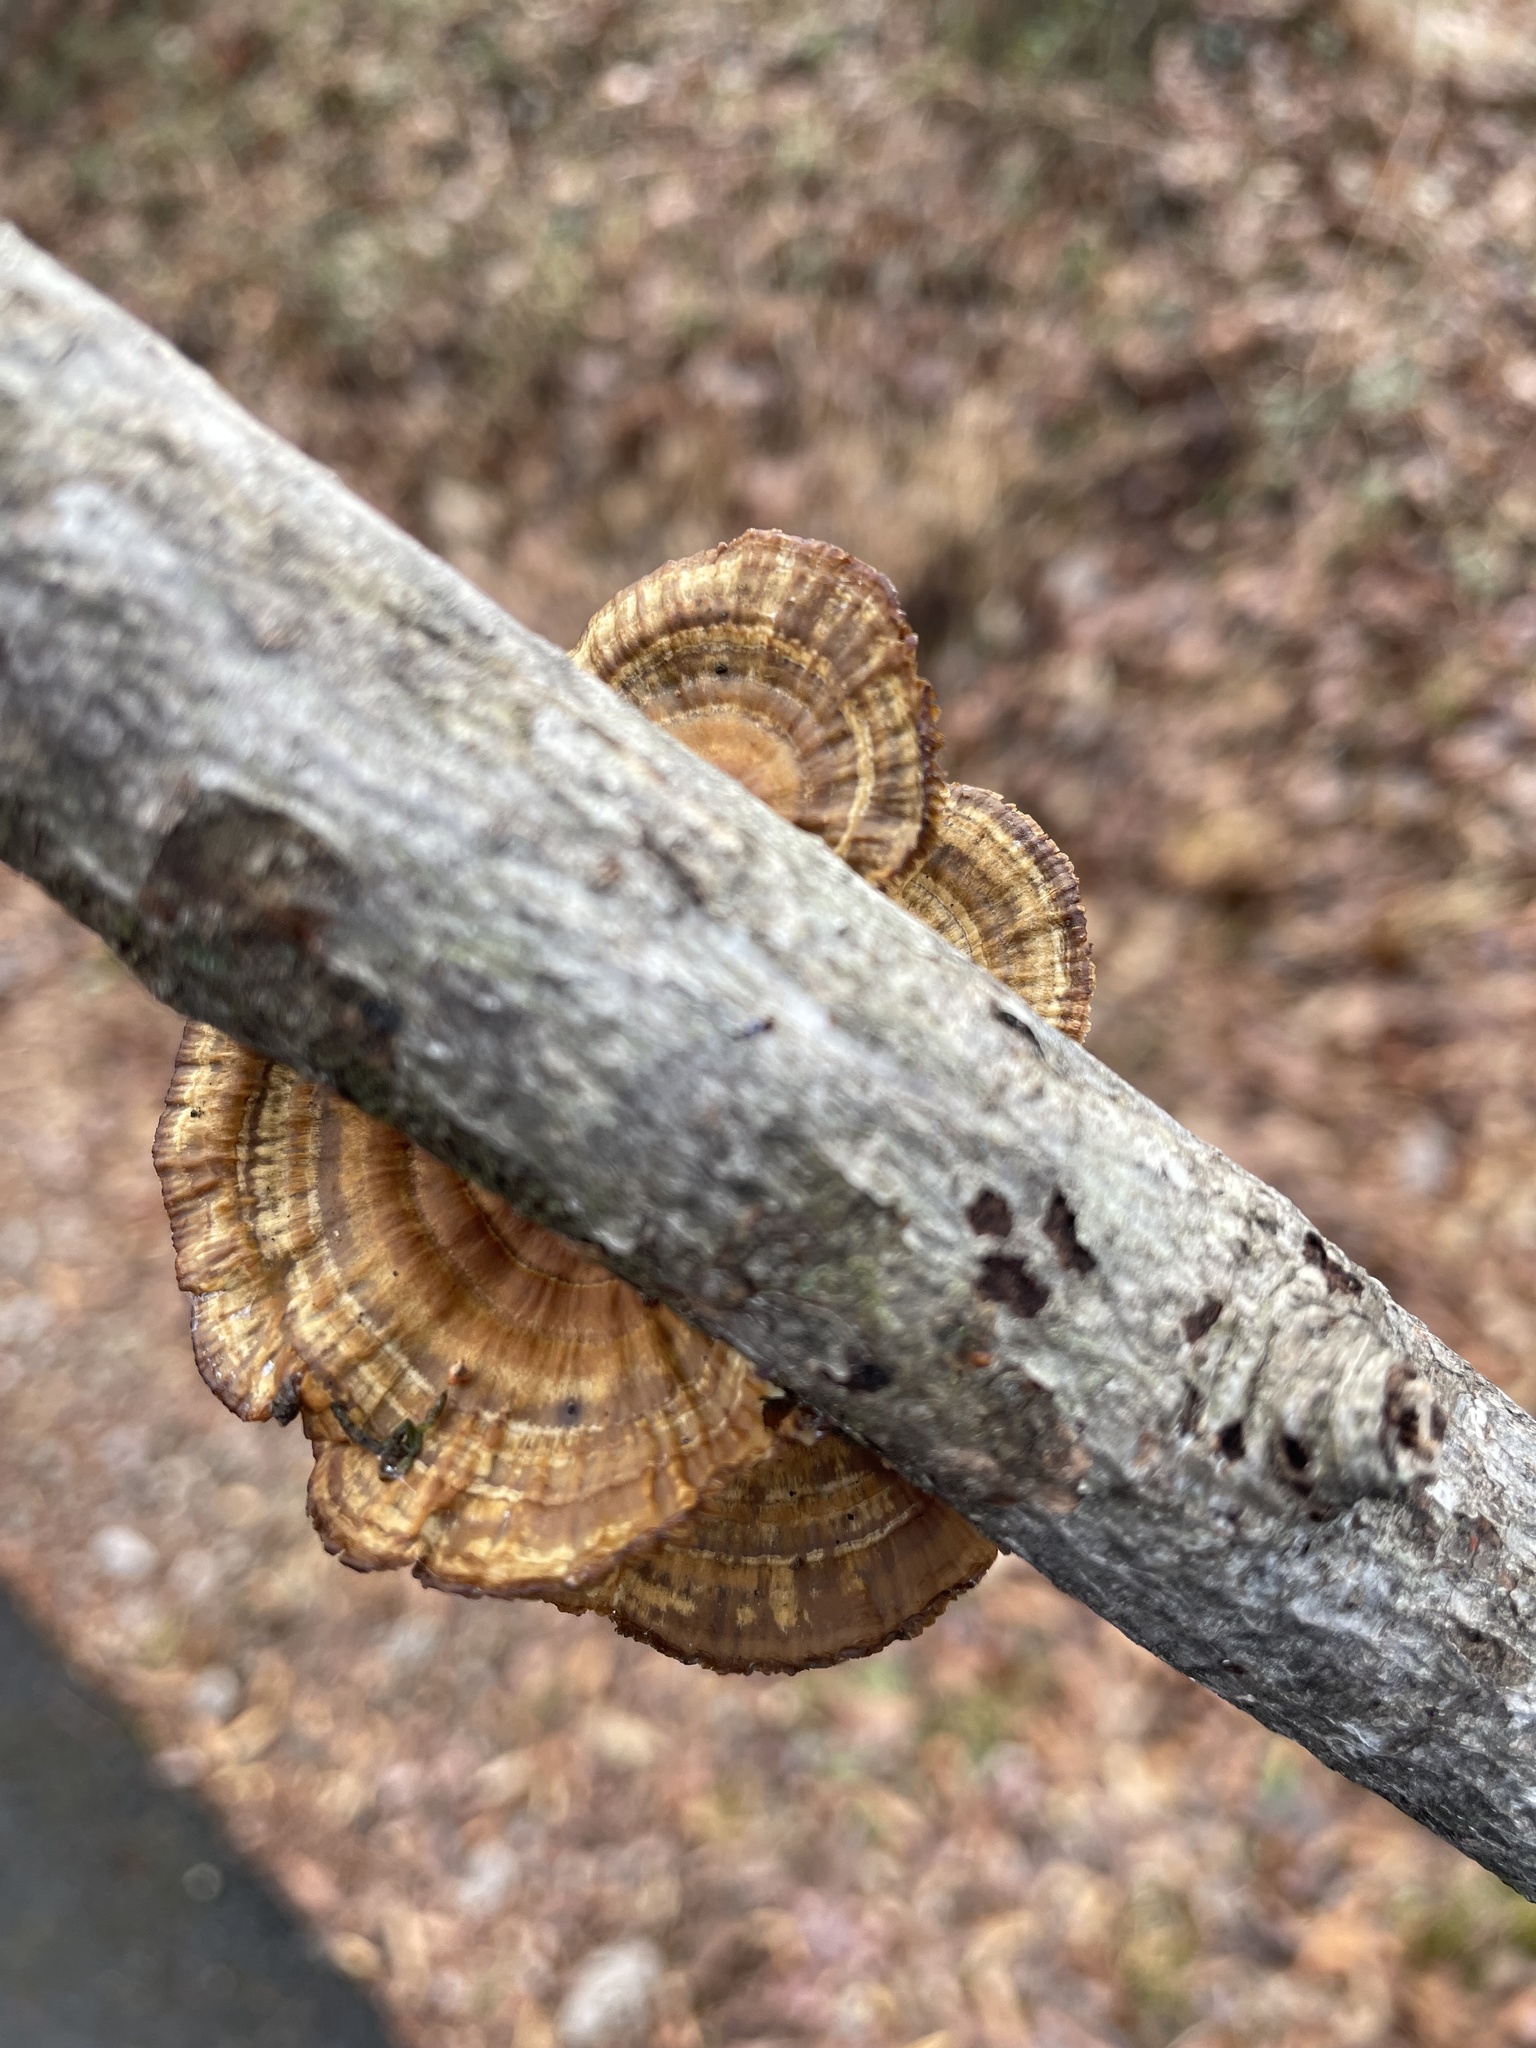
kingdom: Fungi
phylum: Basidiomycota
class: Agaricomycetes
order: Polyporales
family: Polyporaceae
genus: Daedaleopsis
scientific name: Daedaleopsis confragosa
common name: Blushing bracket
